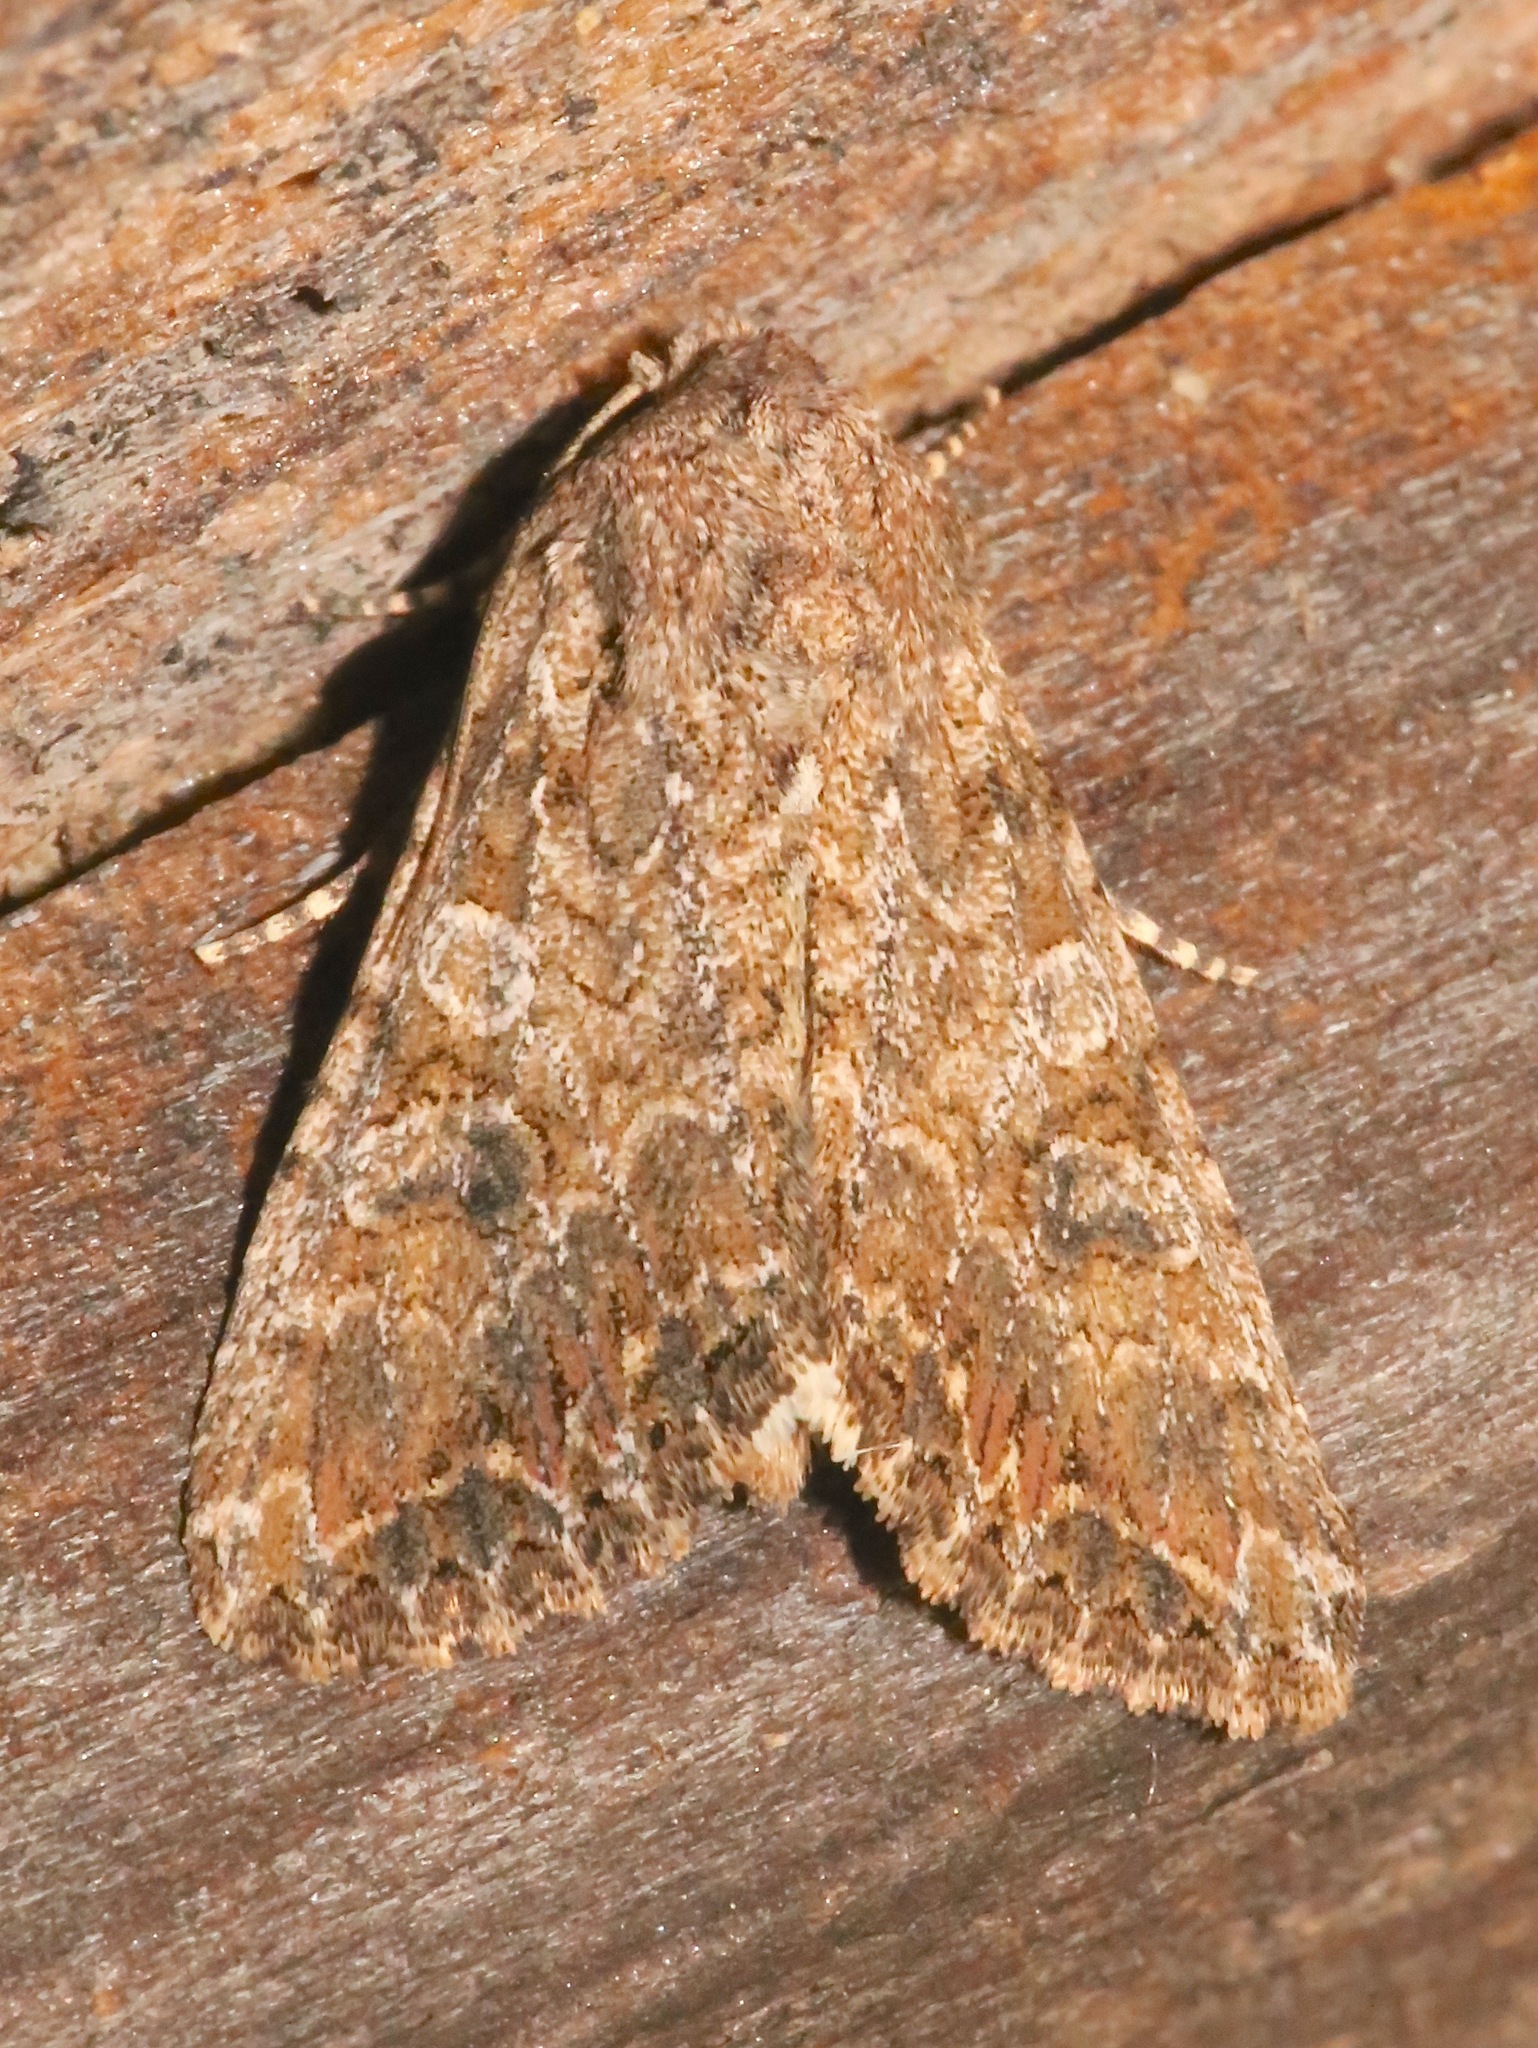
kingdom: Animalia
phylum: Arthropoda
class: Insecta
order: Lepidoptera
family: Noctuidae
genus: Anarta
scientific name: Anarta trifolii
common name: Clover cutworm moth
